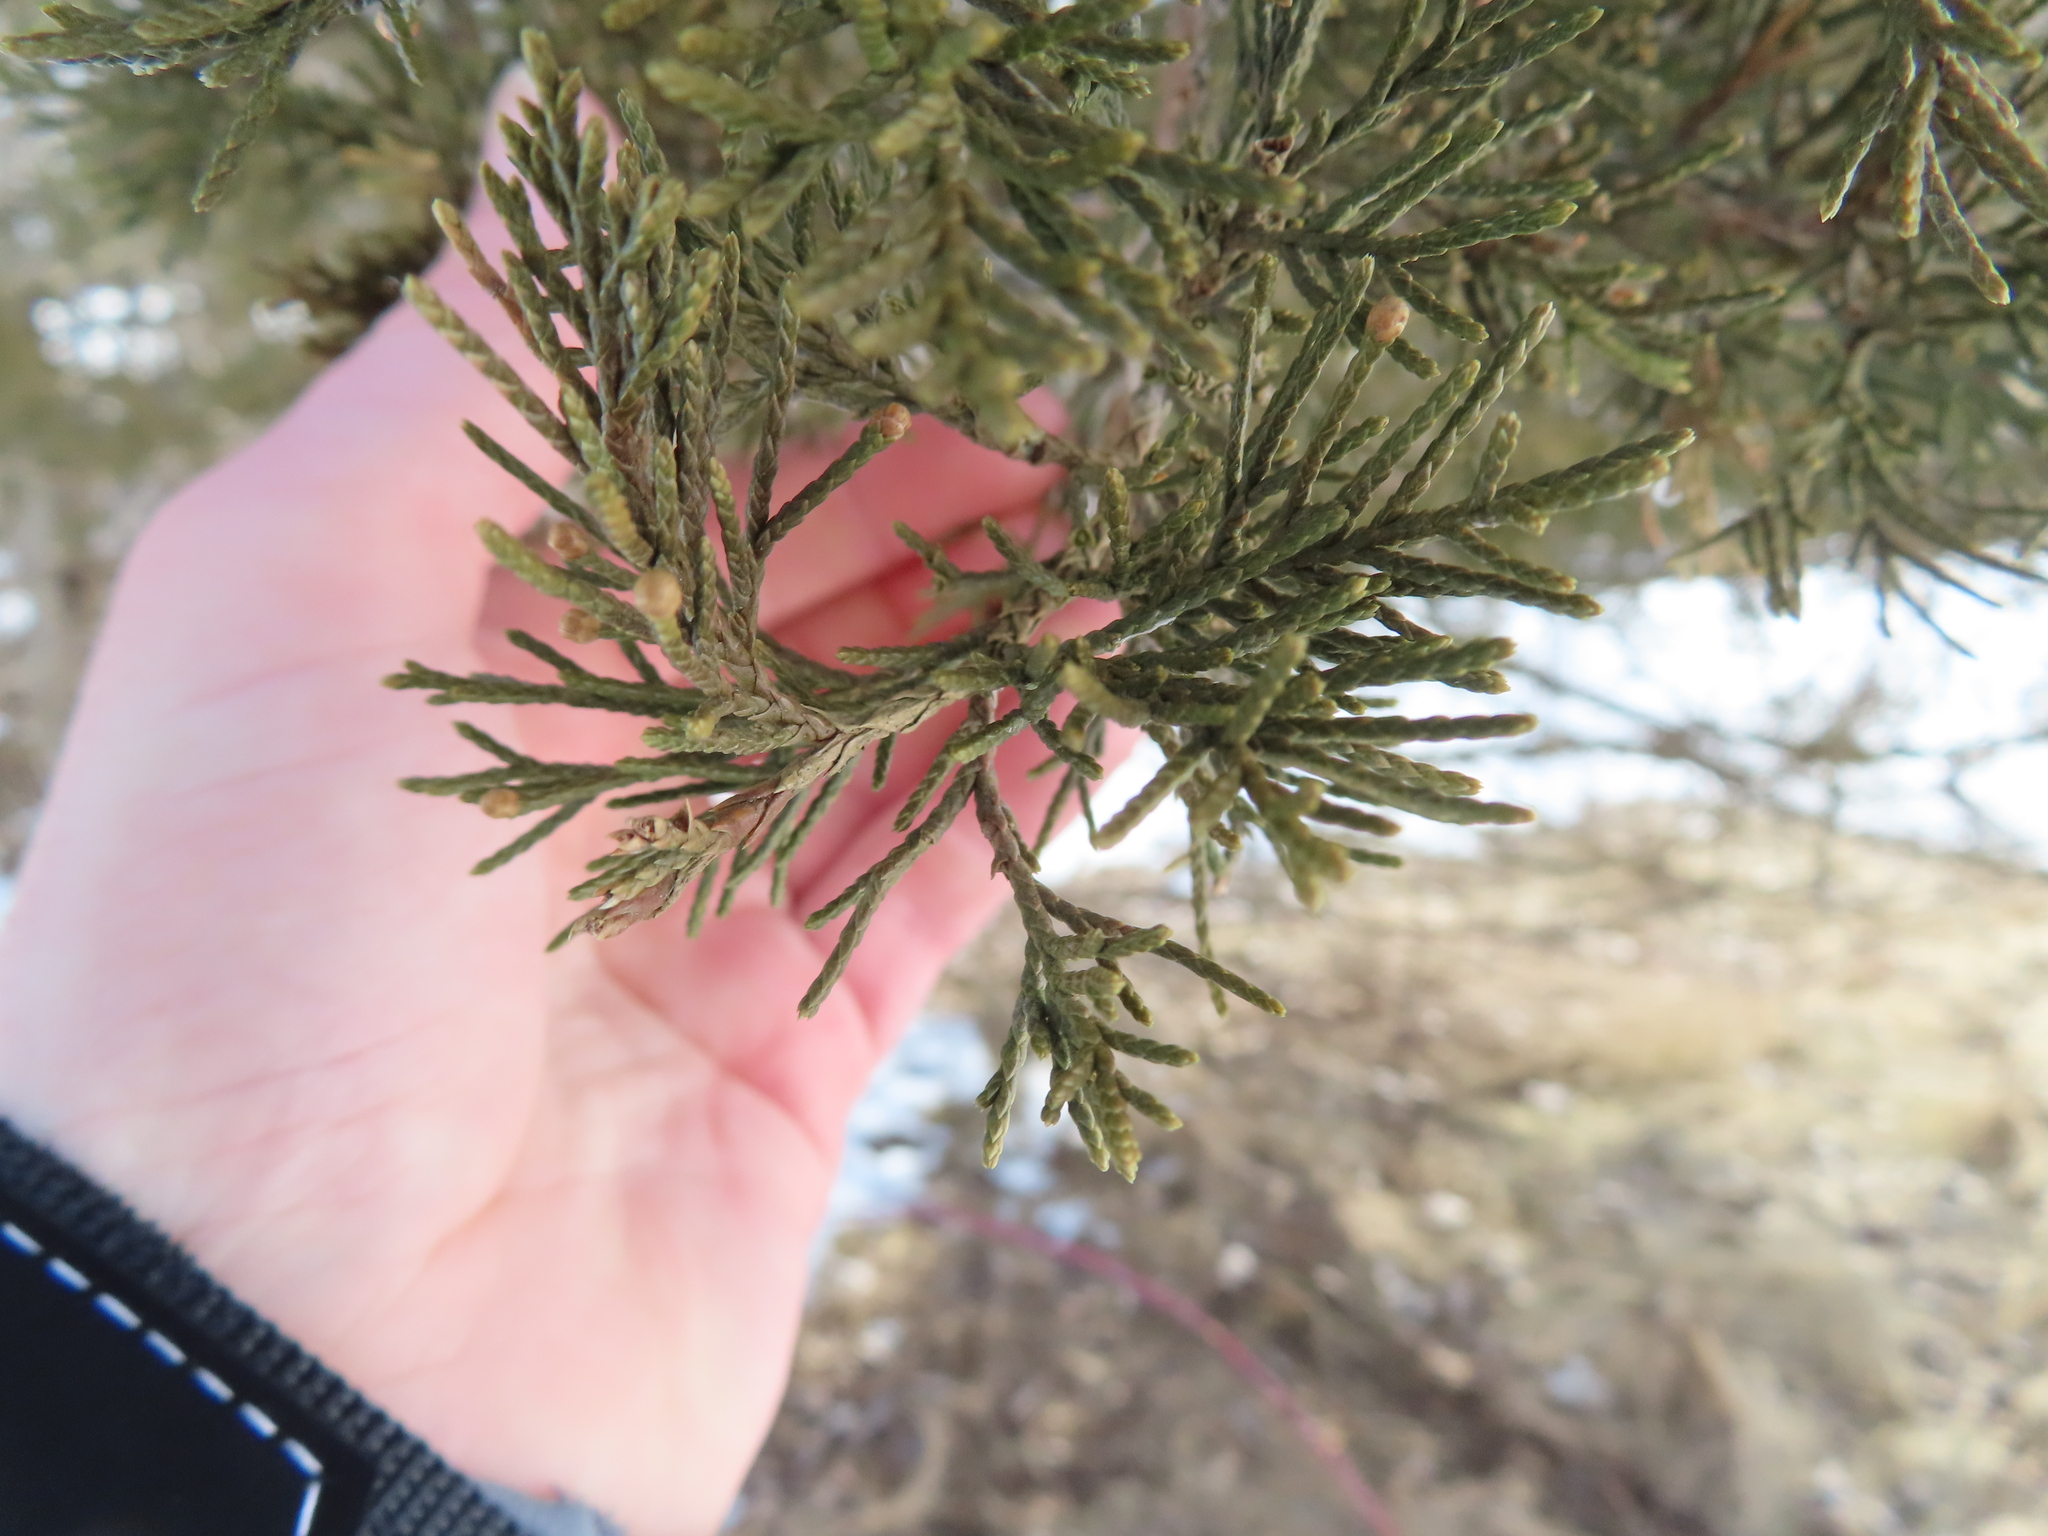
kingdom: Plantae
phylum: Tracheophyta
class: Pinopsida
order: Pinales
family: Cupressaceae
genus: Juniperus
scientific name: Juniperus virginiana
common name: Red juniper
